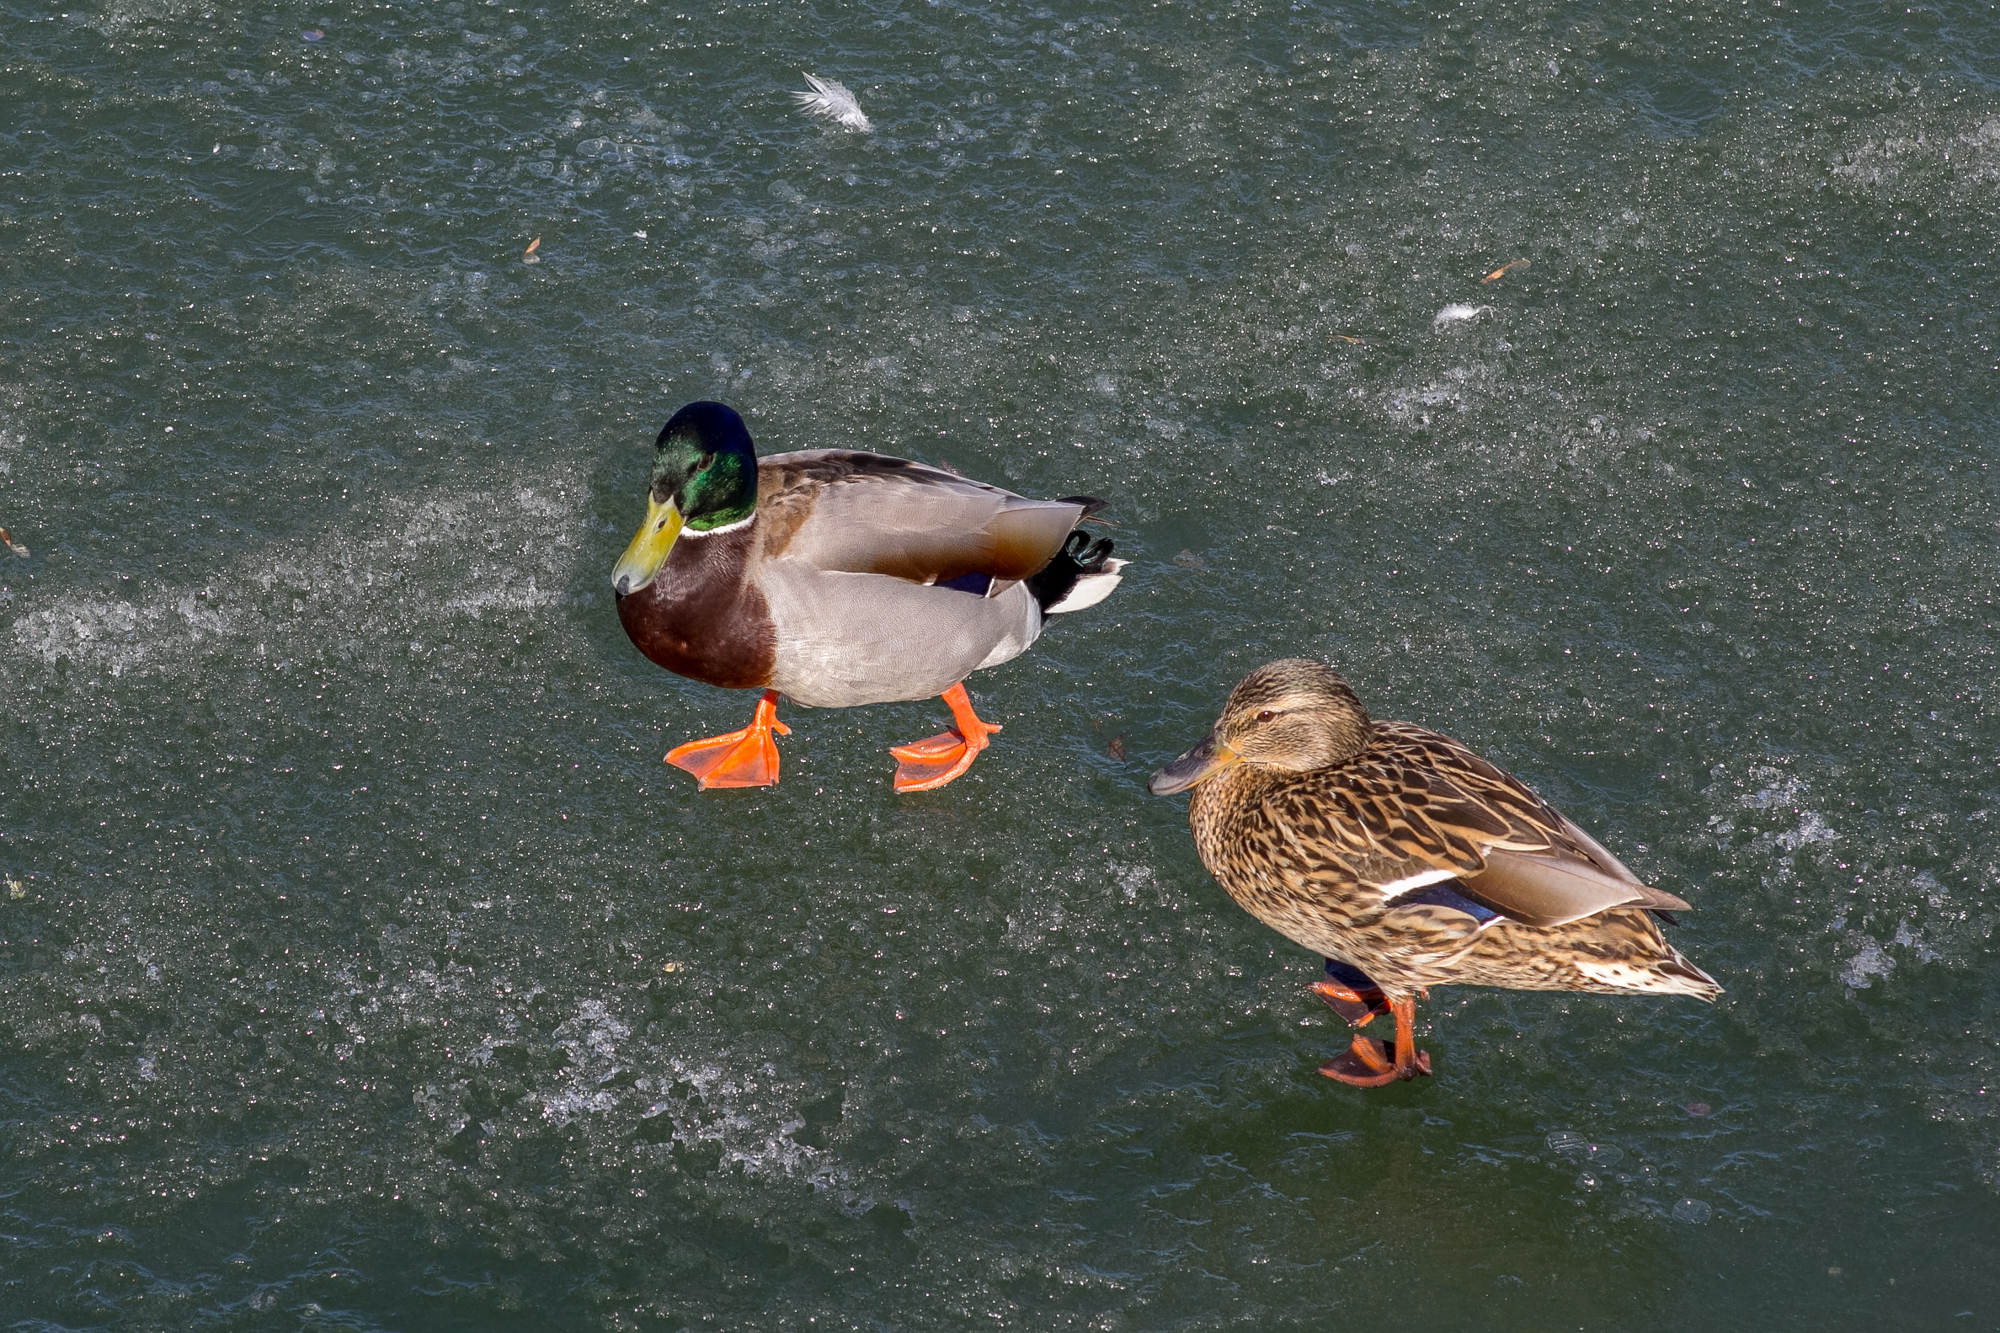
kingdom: Animalia
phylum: Chordata
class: Aves
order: Anseriformes
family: Anatidae
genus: Anas
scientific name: Anas platyrhynchos
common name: Mallard
